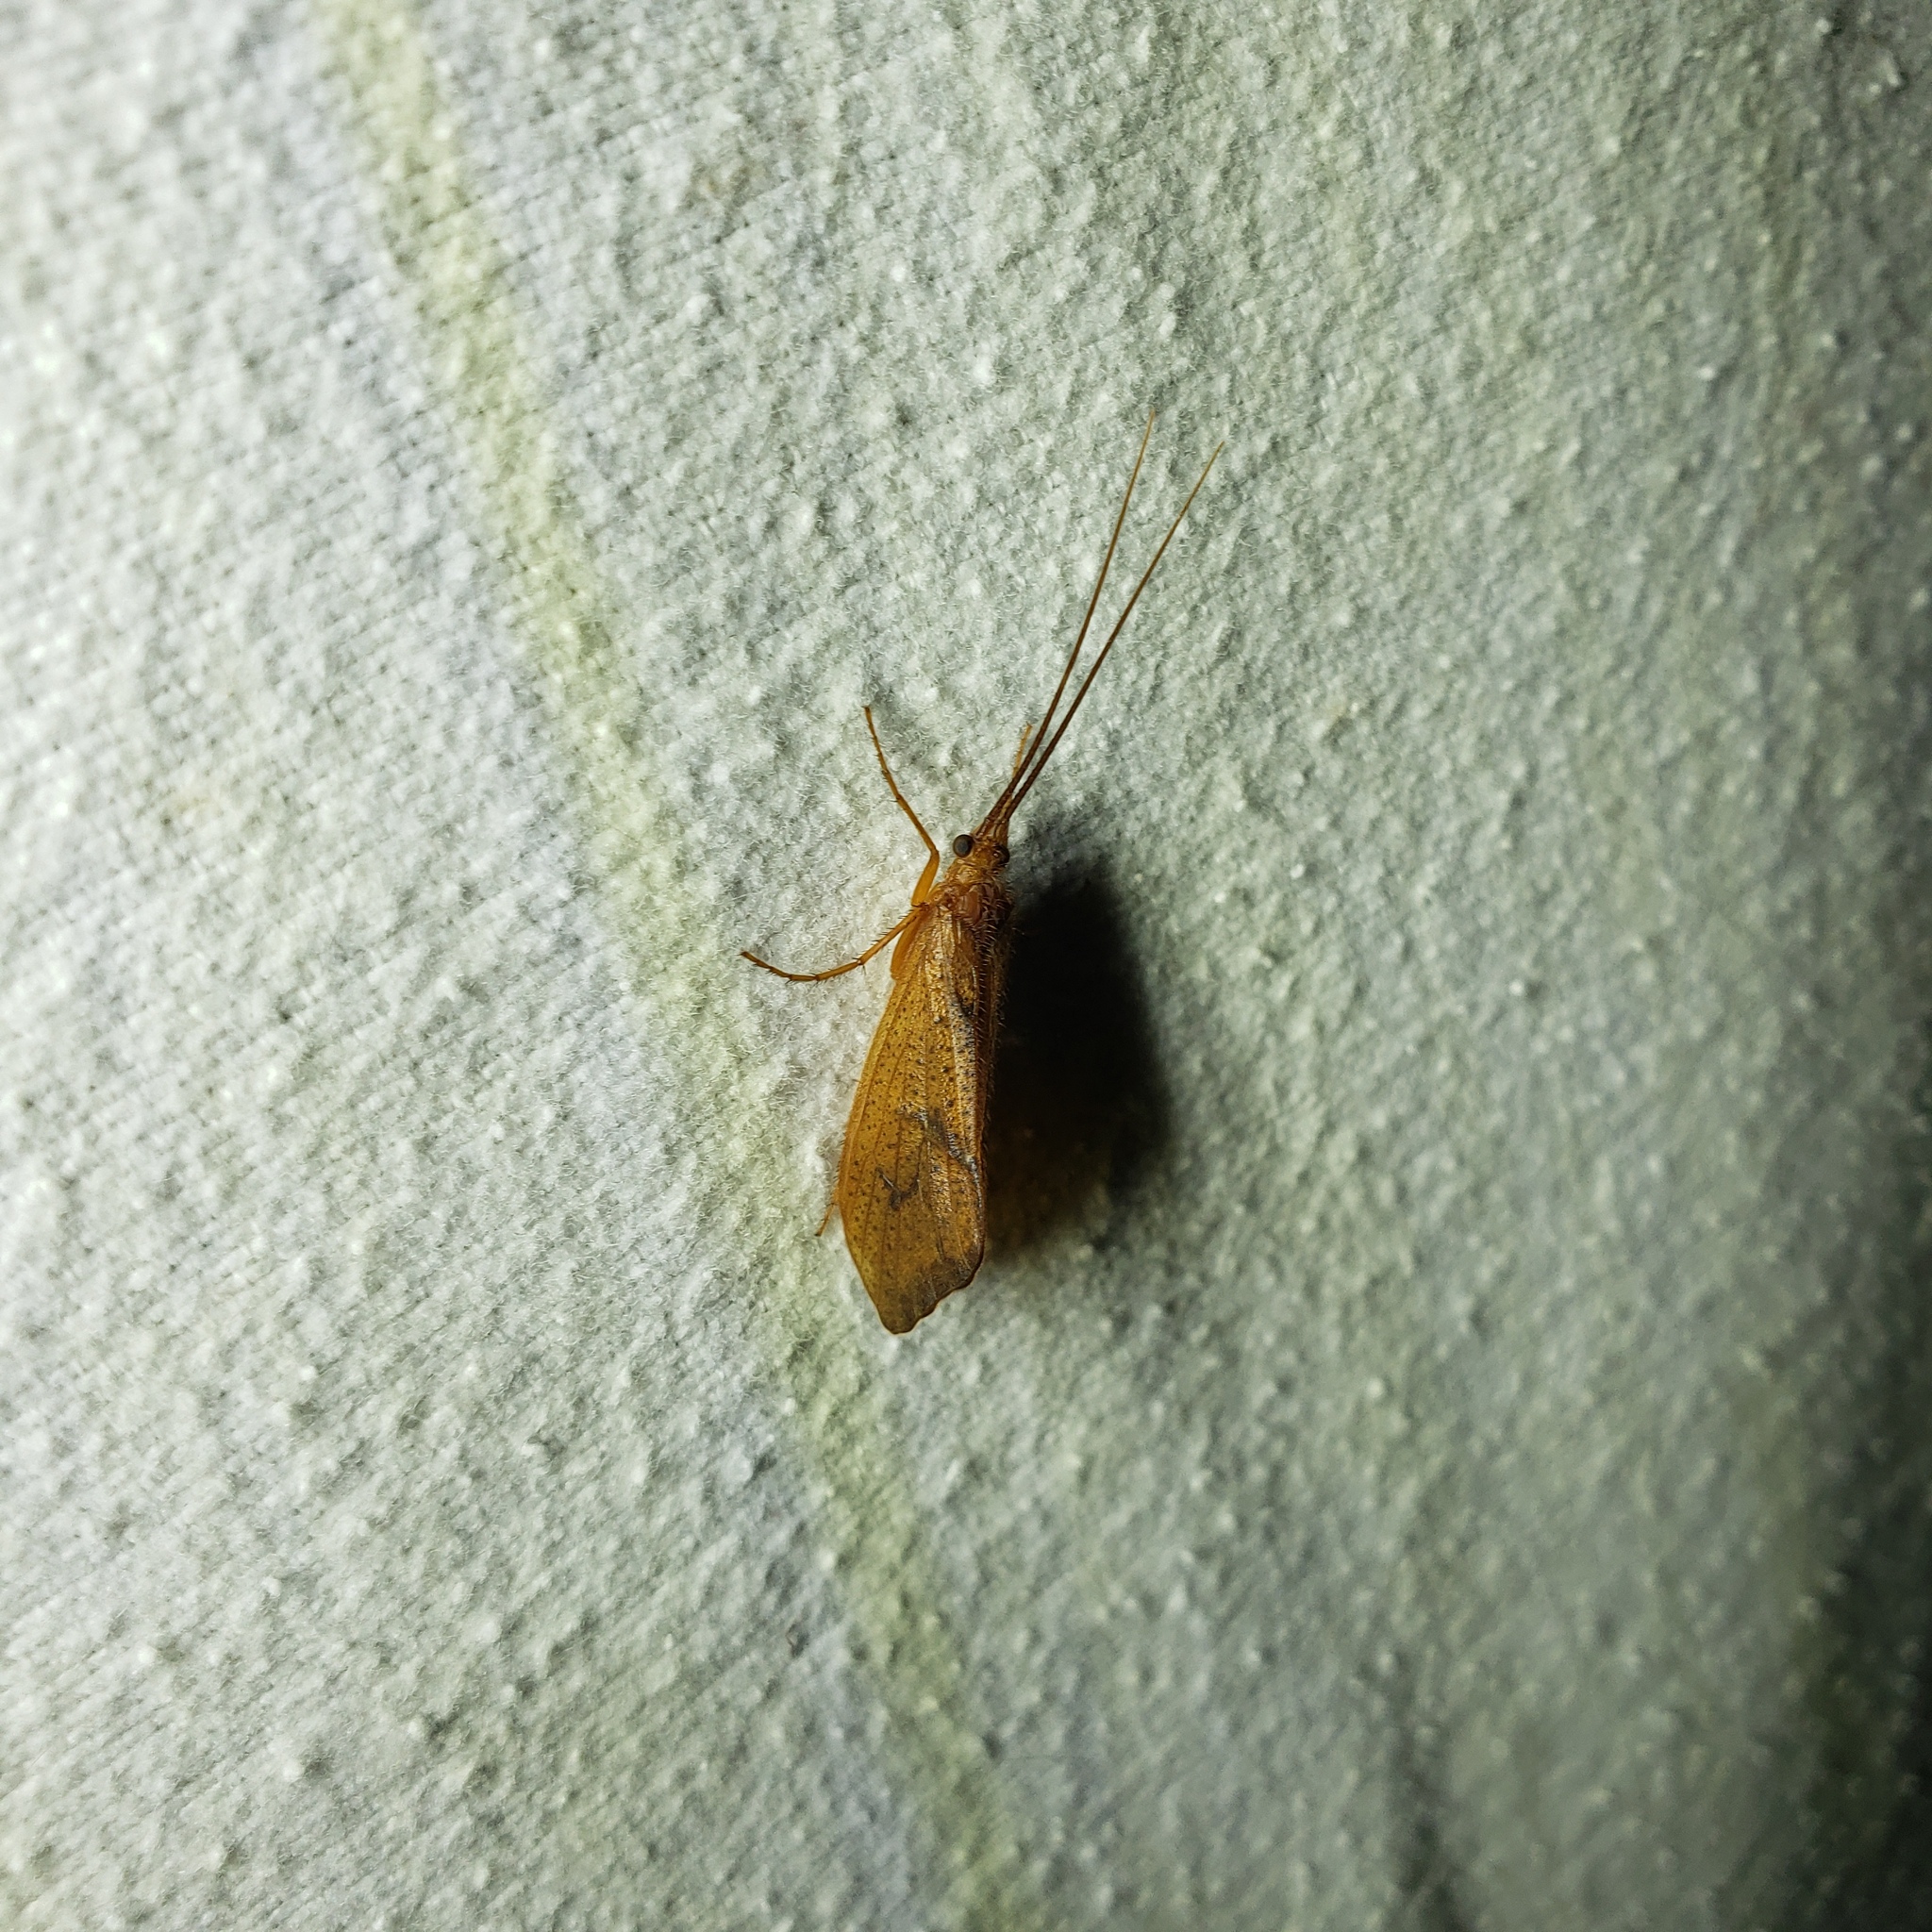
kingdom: Animalia
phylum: Arthropoda
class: Insecta
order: Trichoptera
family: Limnephilidae
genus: Pycnopsyche
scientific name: Pycnopsyche antica
